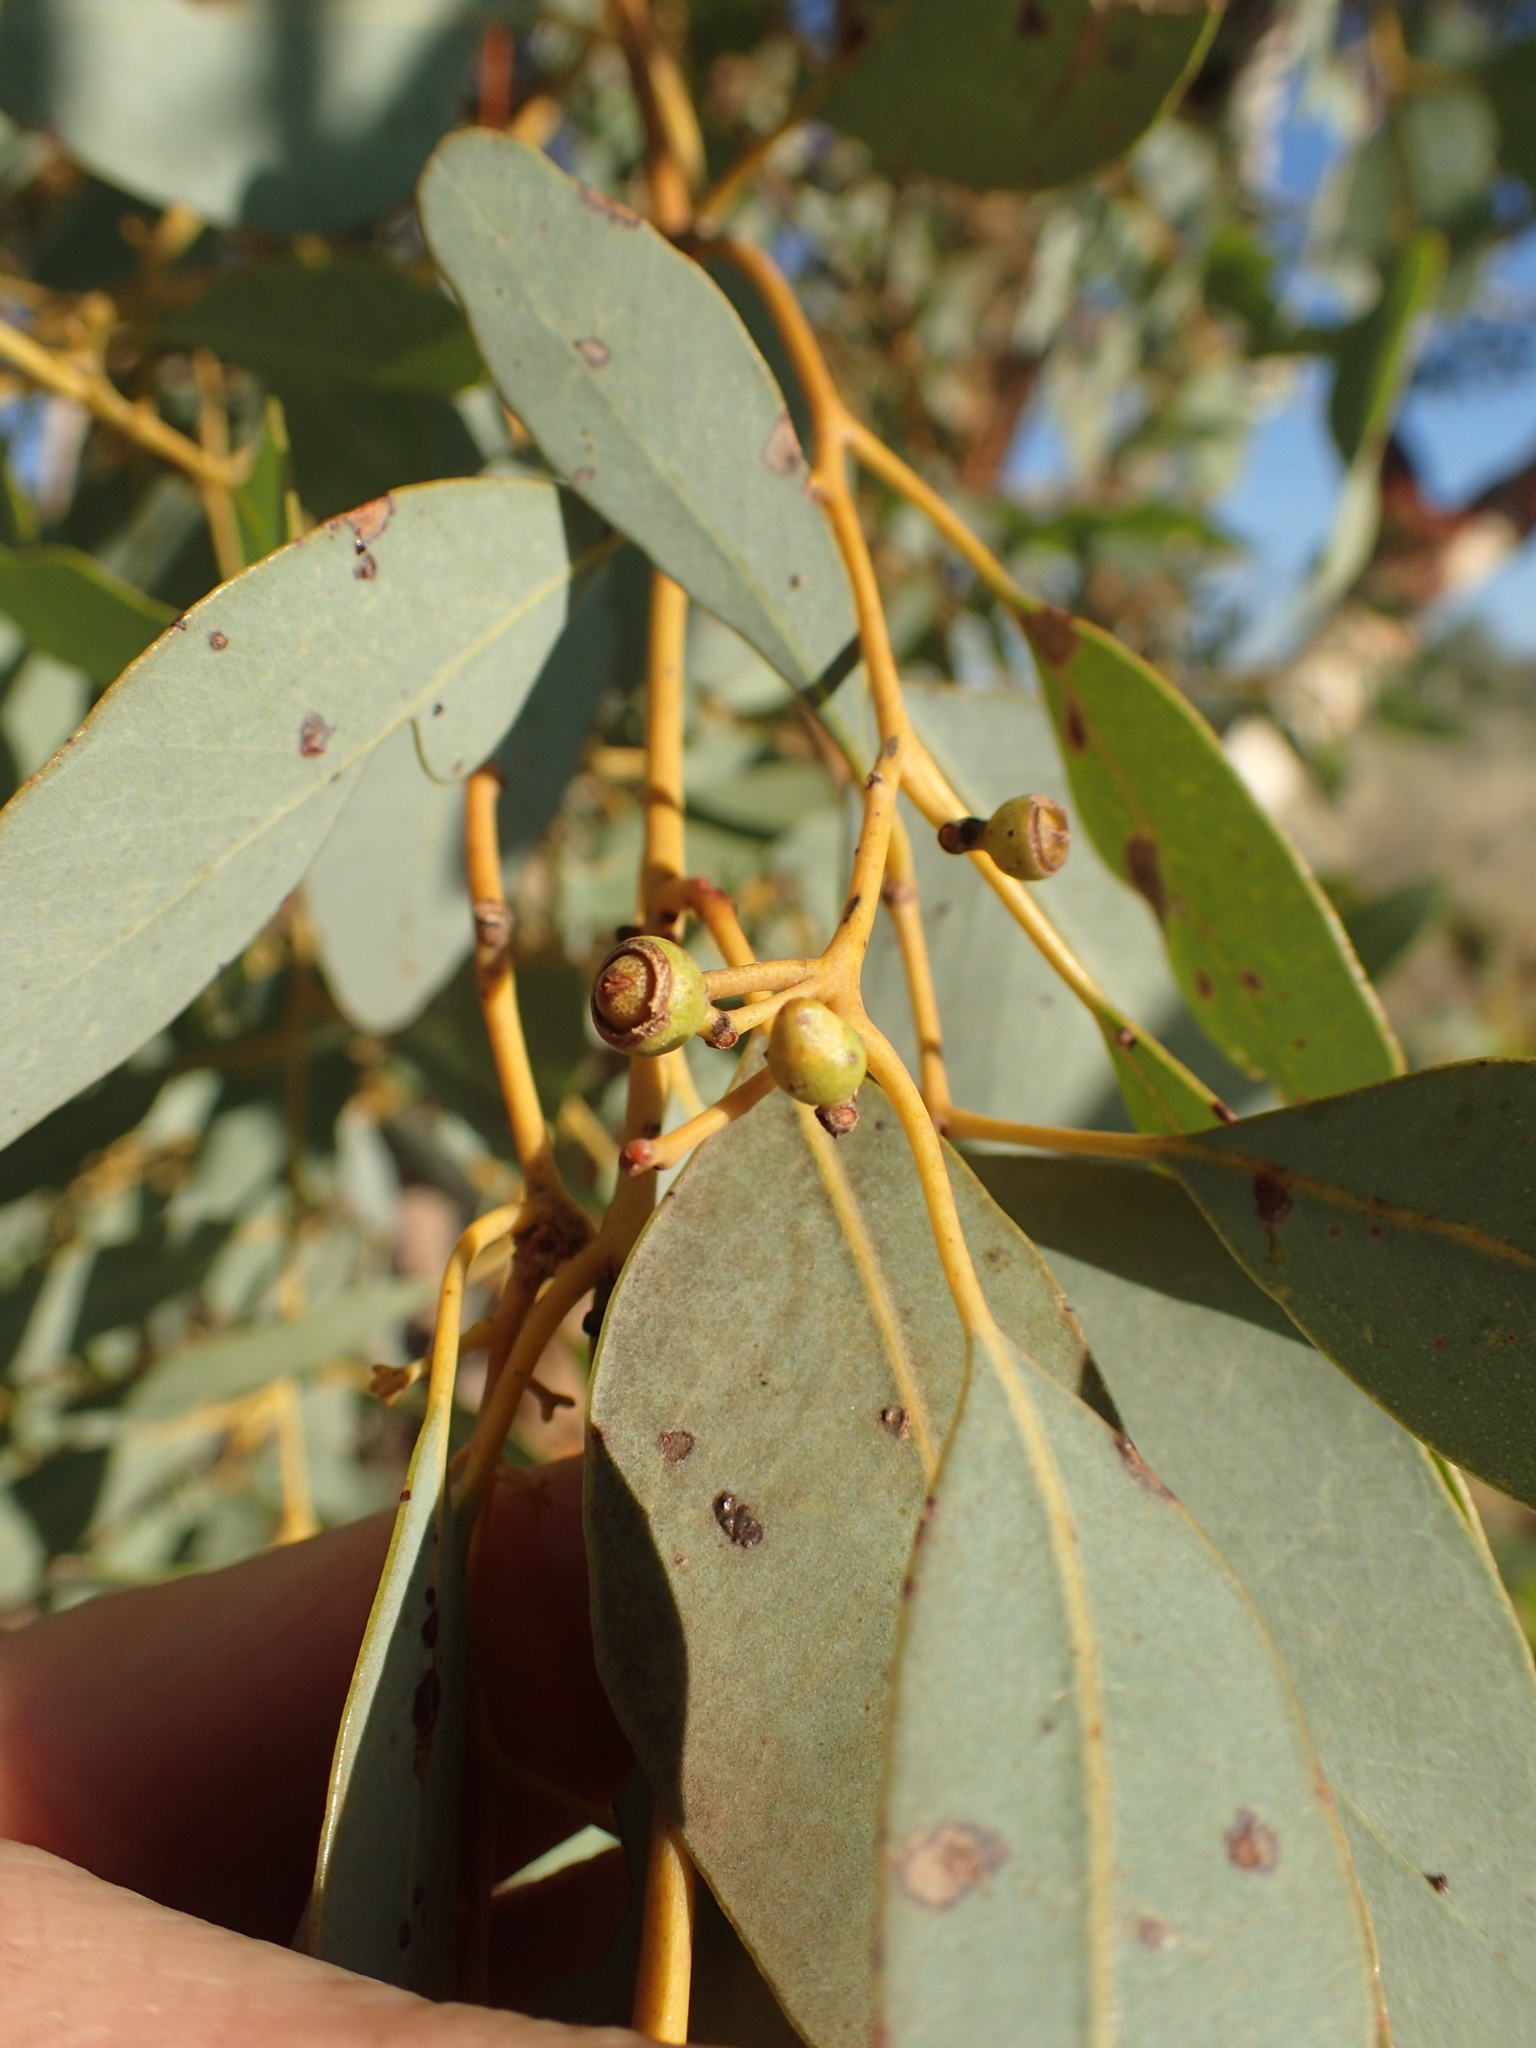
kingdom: Plantae
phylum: Tracheophyta
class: Magnoliopsida
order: Myrtales
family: Myrtaceae
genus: Eucalyptus
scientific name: Eucalyptus leucophloia
